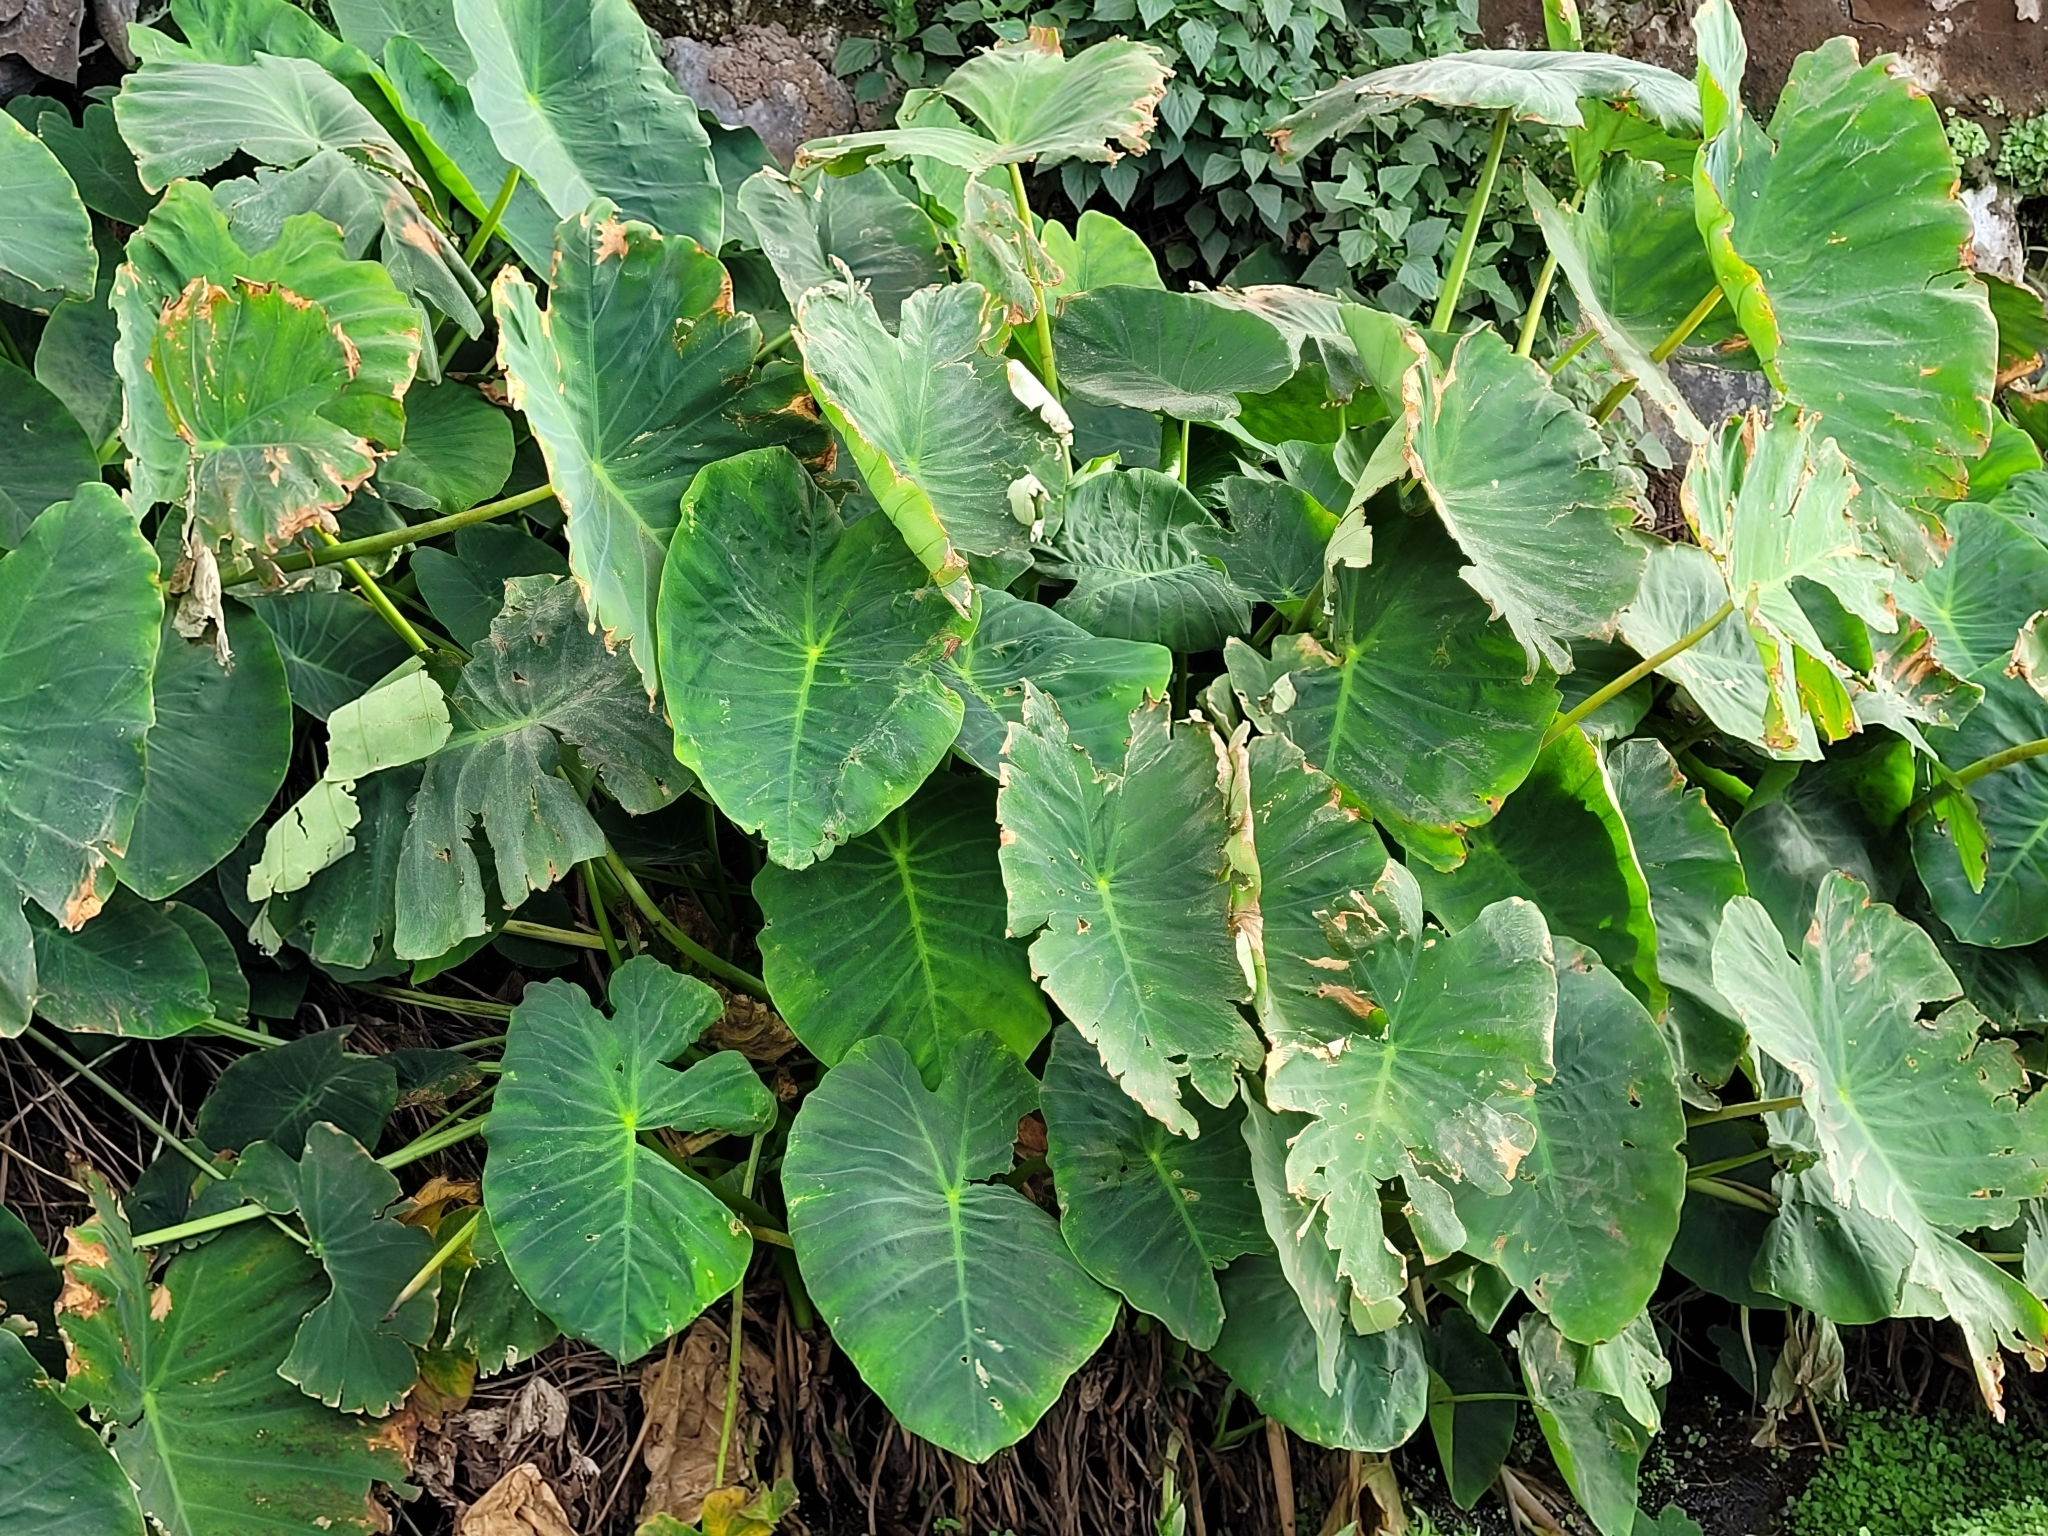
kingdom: Plantae
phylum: Tracheophyta
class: Liliopsida
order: Alismatales
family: Araceae
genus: Colocasia
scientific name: Colocasia esculenta
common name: Taro
